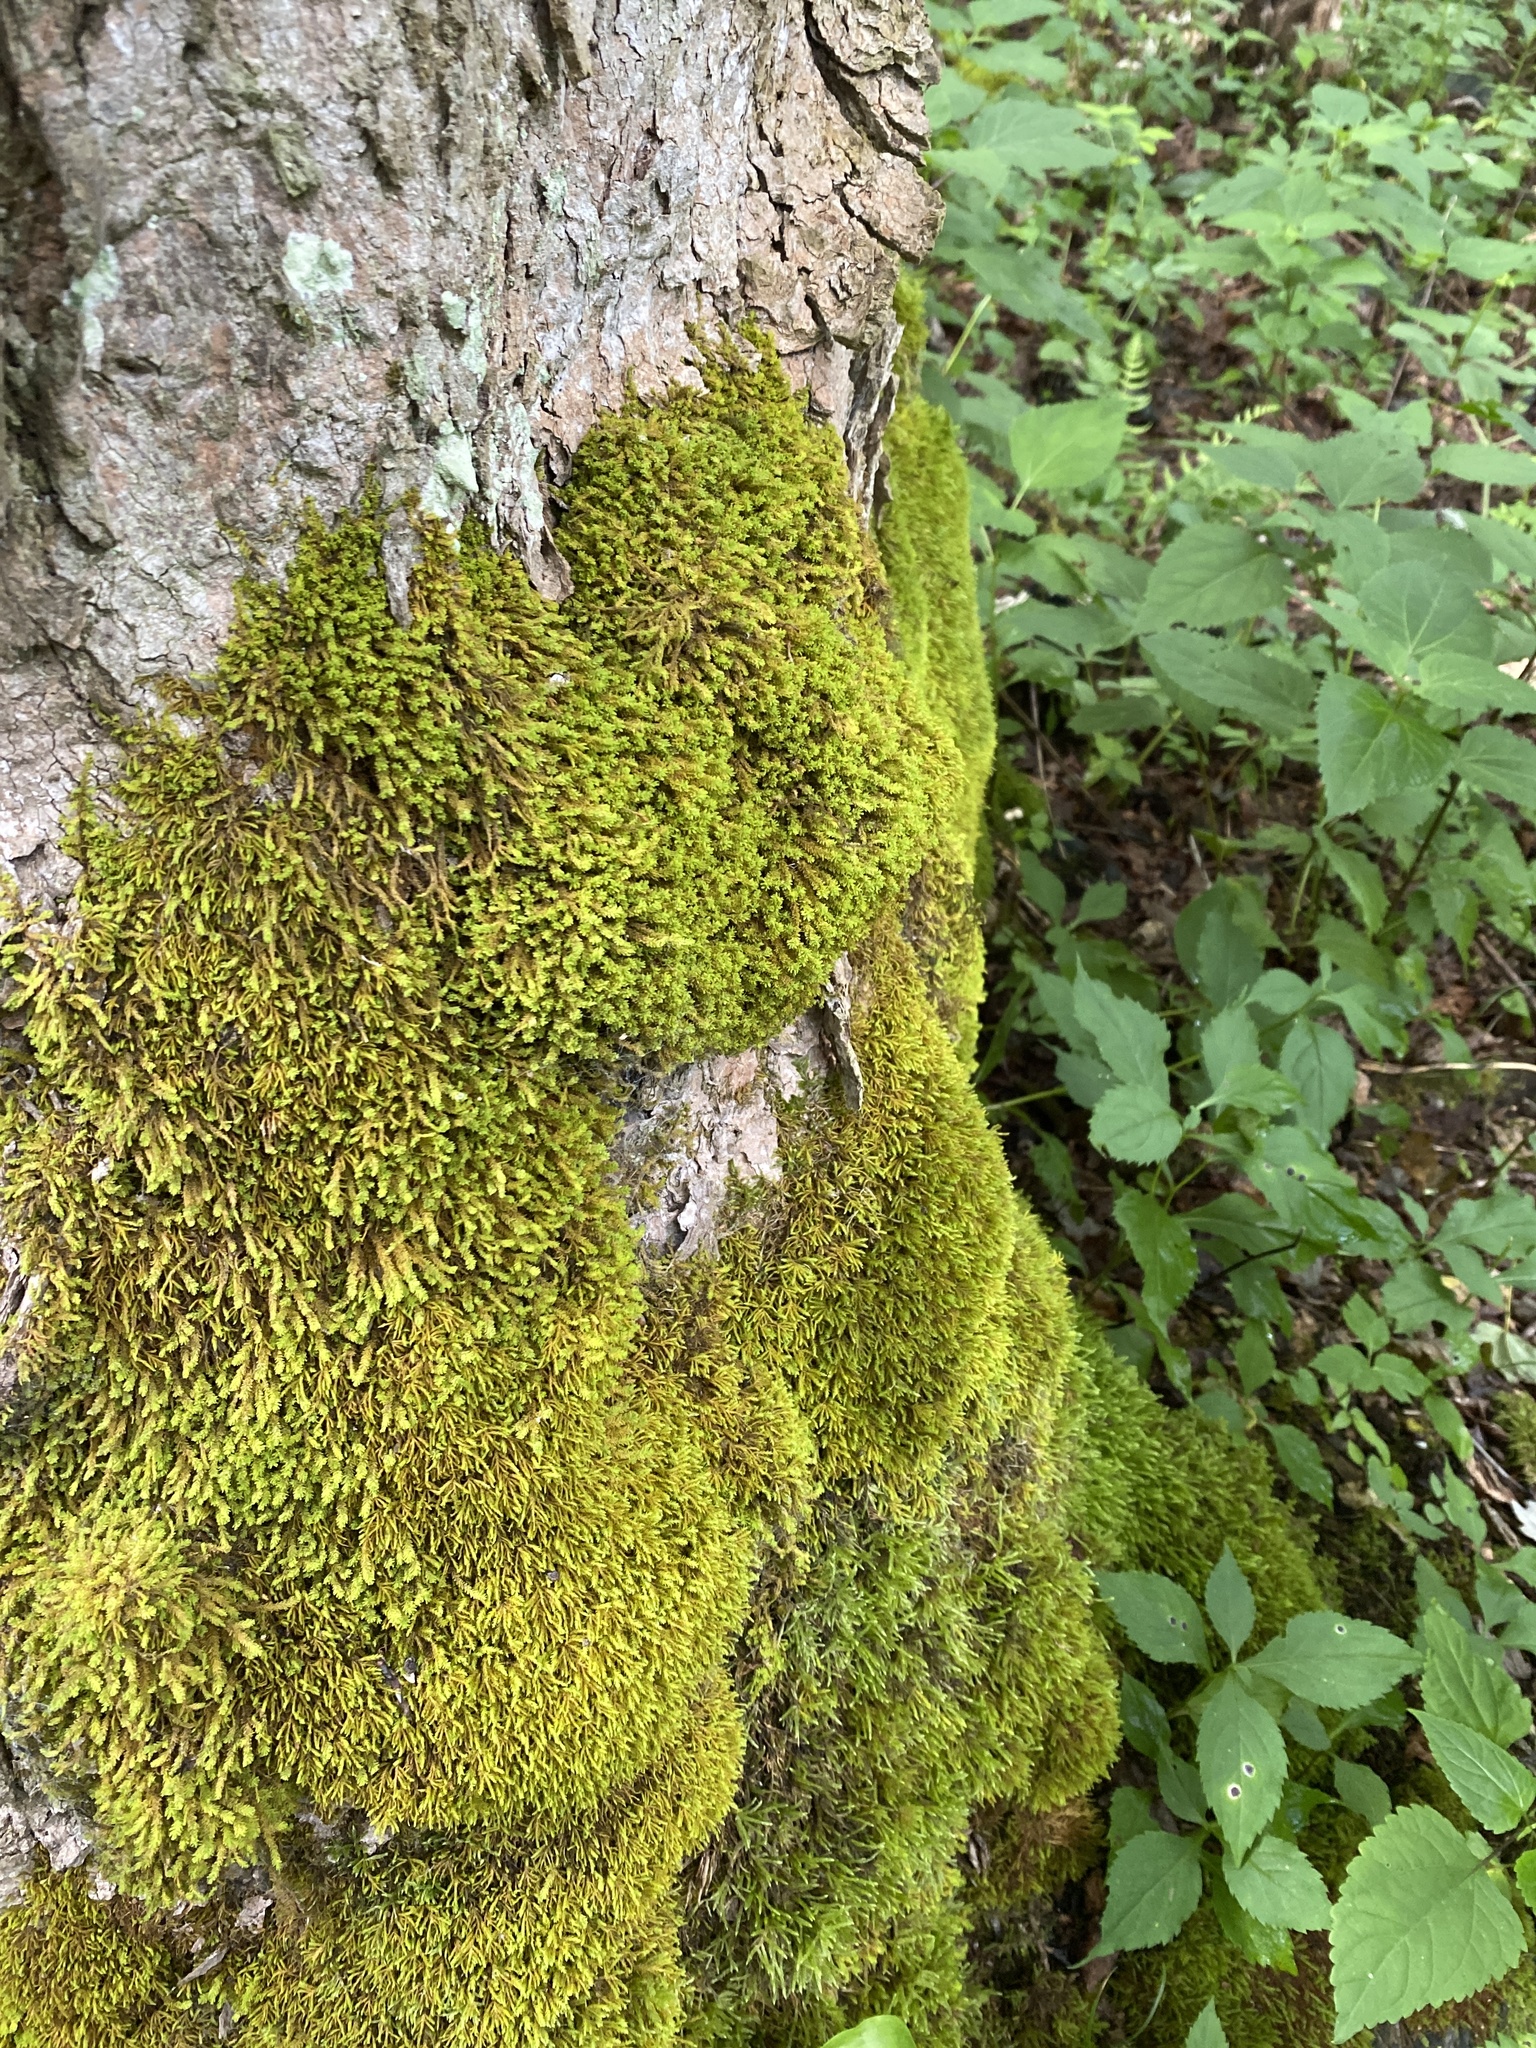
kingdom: Plantae
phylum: Bryophyta
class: Bryopsida
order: Hypnales
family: Anomodontaceae
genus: Anomodontopsis
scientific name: Anomodontopsis rugelii
